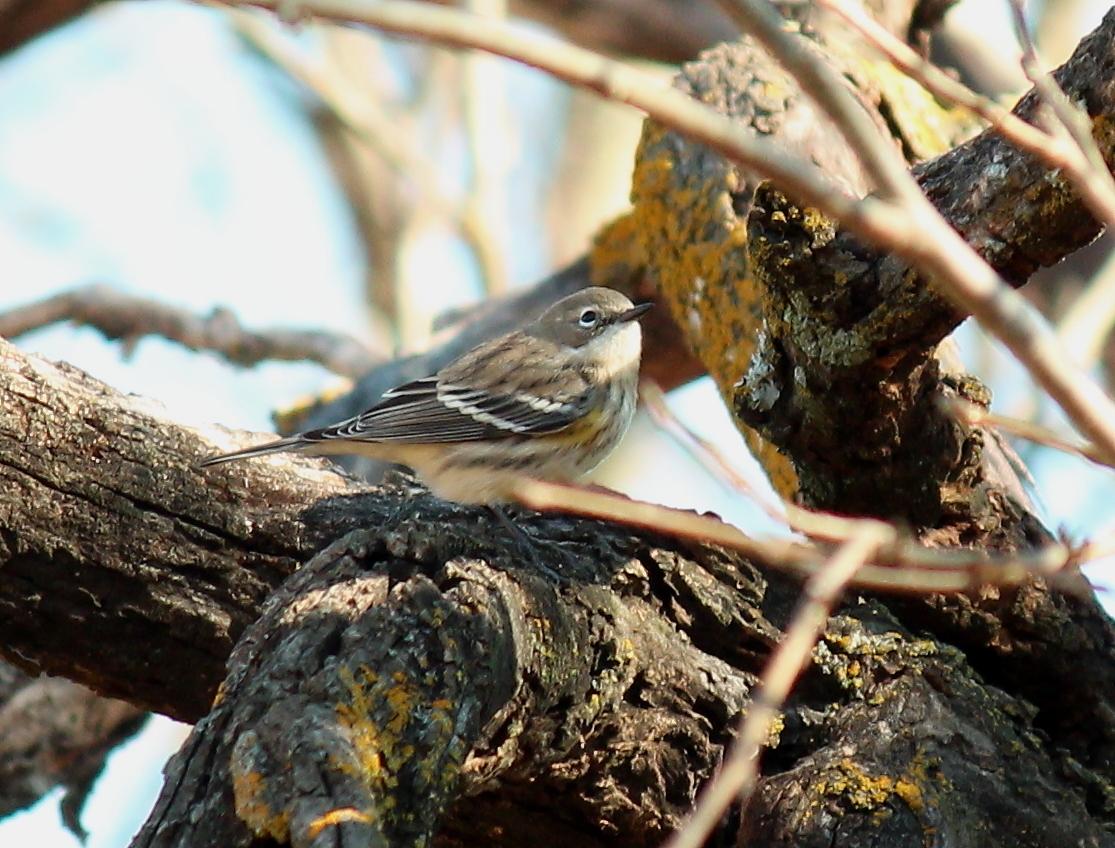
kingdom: Animalia
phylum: Chordata
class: Aves
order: Passeriformes
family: Parulidae
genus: Setophaga
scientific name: Setophaga coronata
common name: Myrtle warbler
